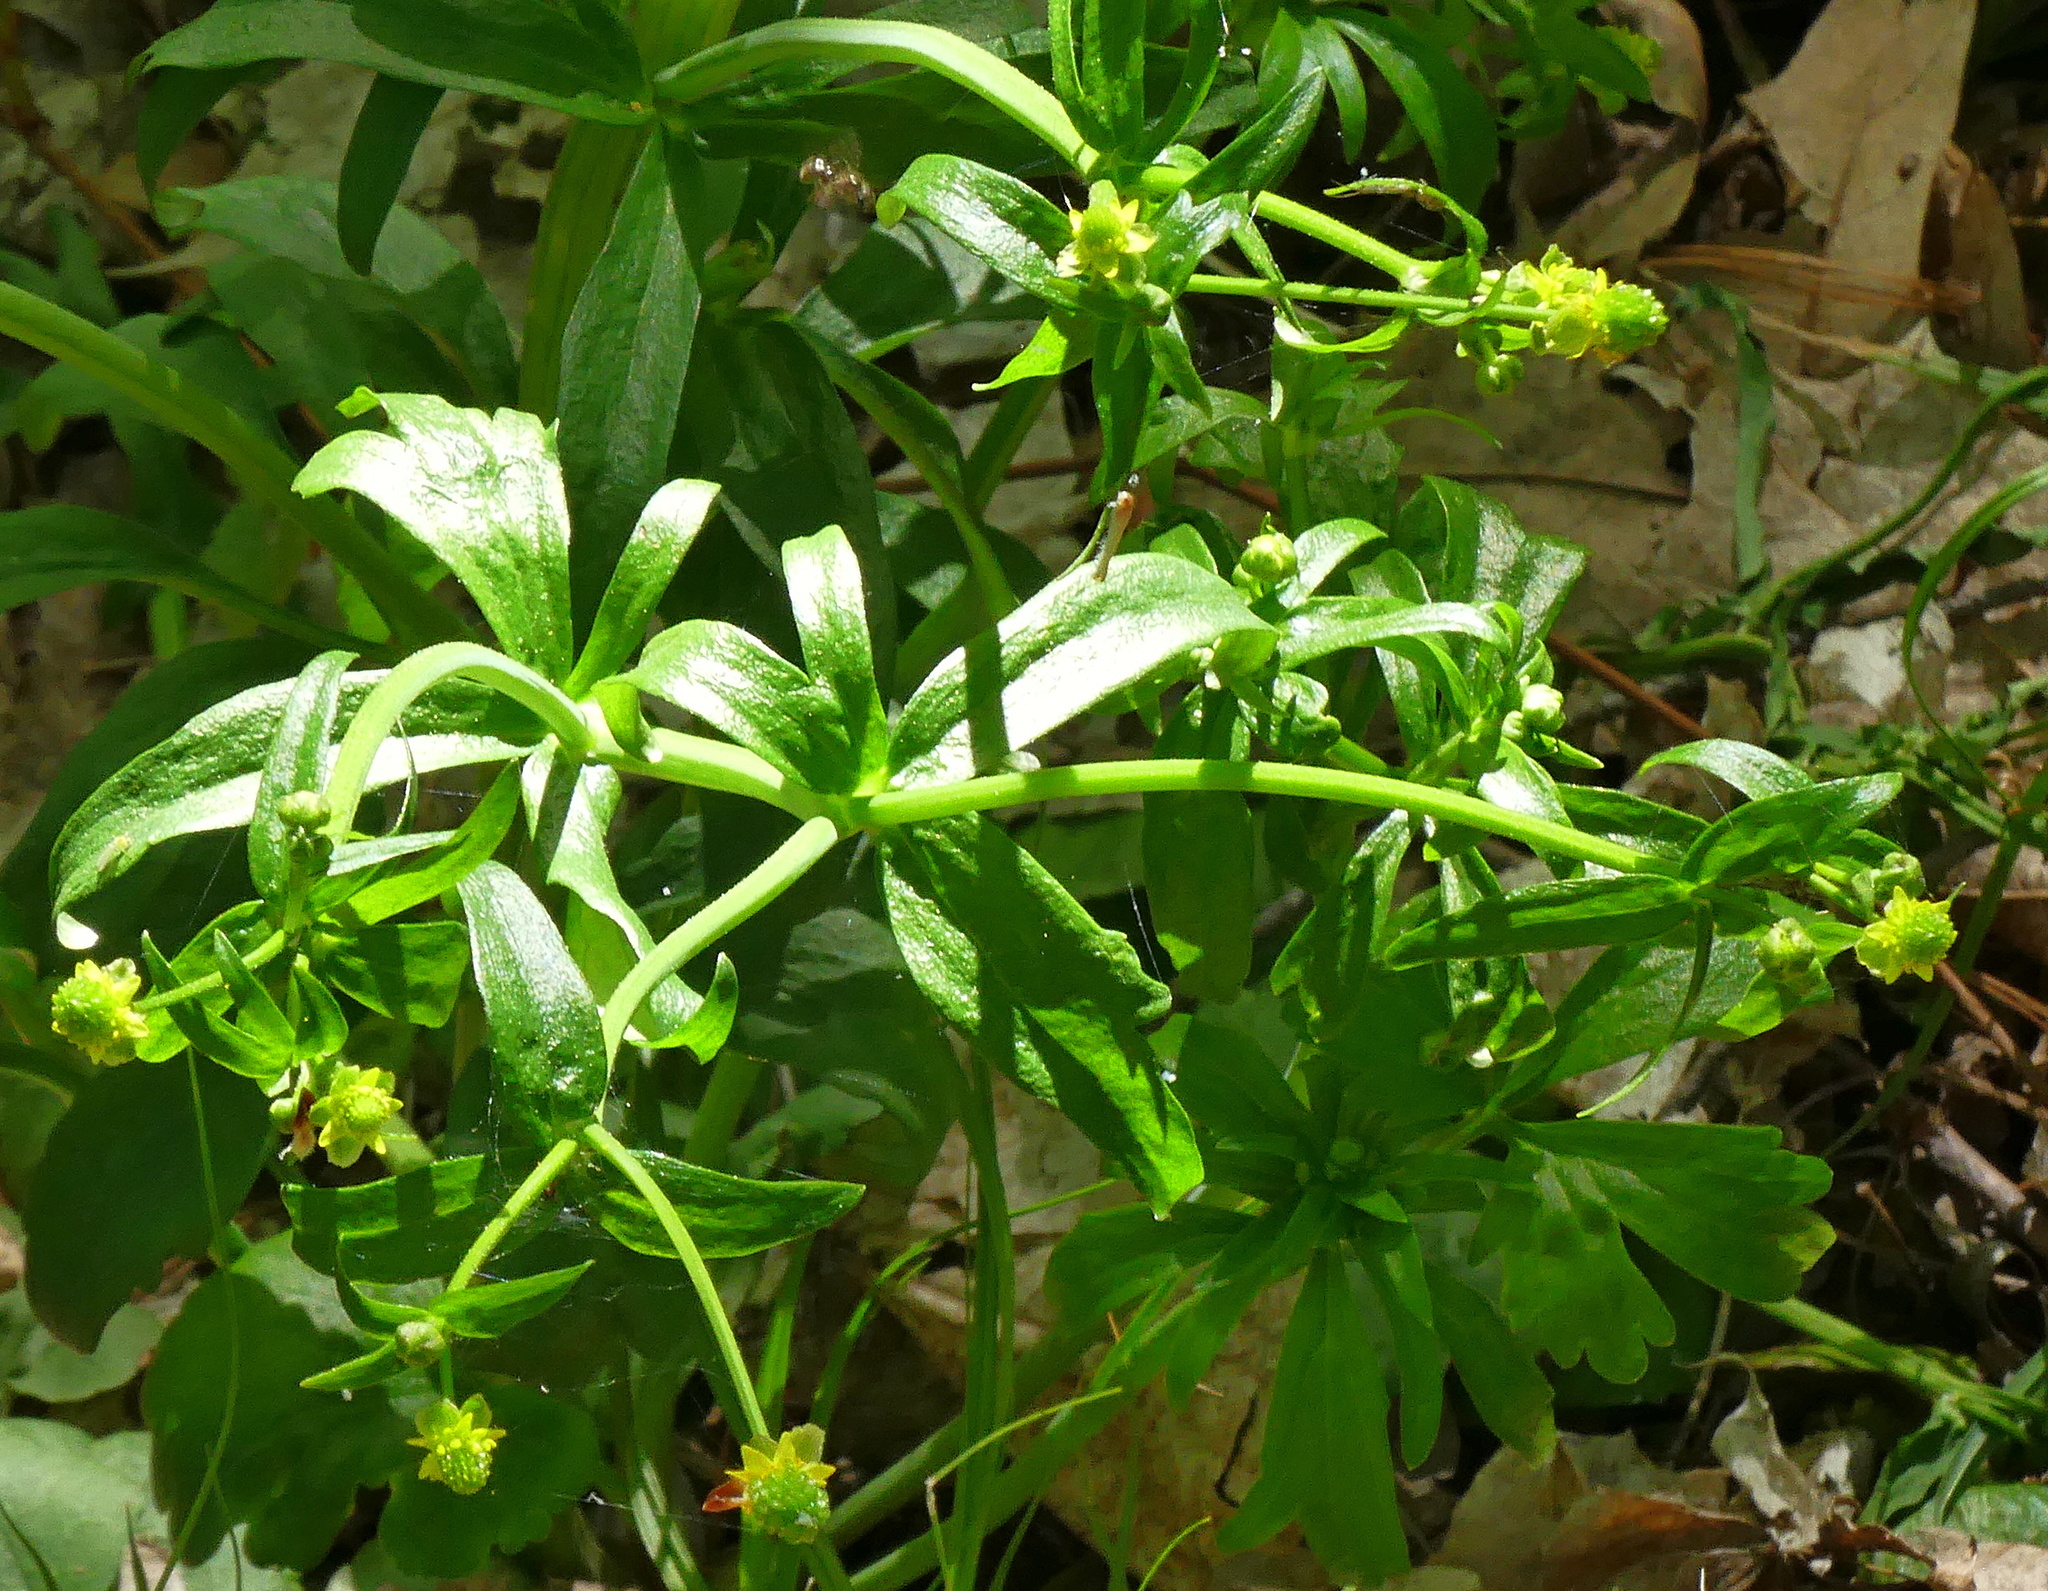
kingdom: Plantae
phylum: Tracheophyta
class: Magnoliopsida
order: Ranunculales
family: Ranunculaceae
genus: Ranunculus
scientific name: Ranunculus abortivus
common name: Early wood buttercup
